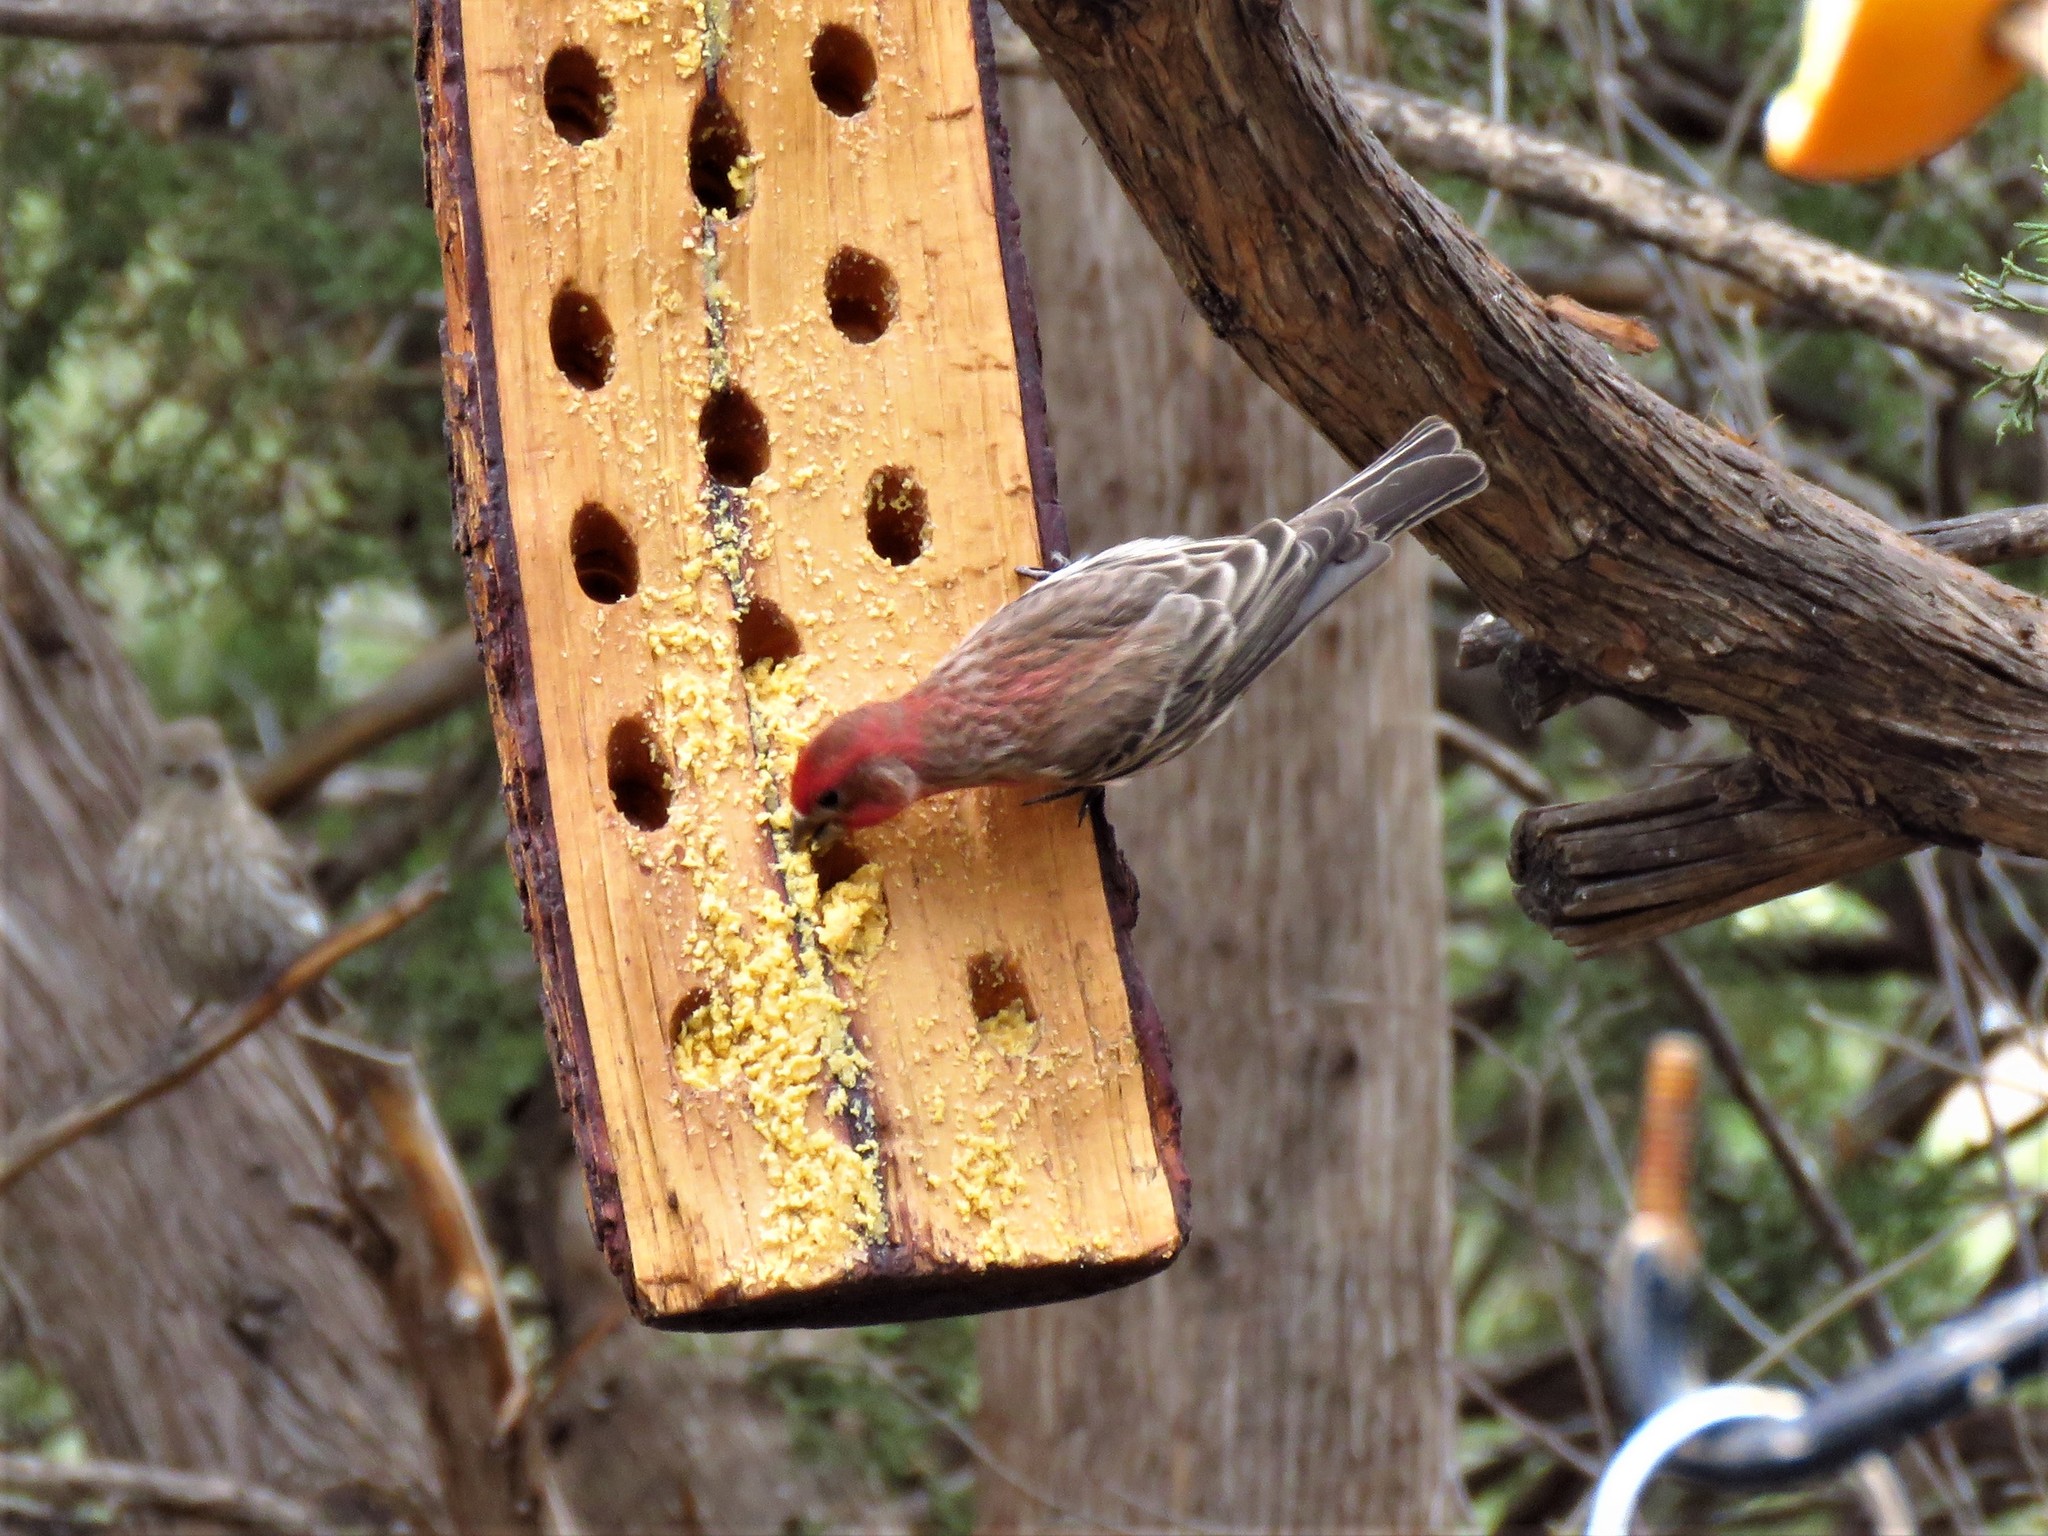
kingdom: Animalia
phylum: Chordata
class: Aves
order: Passeriformes
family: Fringillidae
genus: Haemorhous
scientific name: Haemorhous mexicanus
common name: House finch
